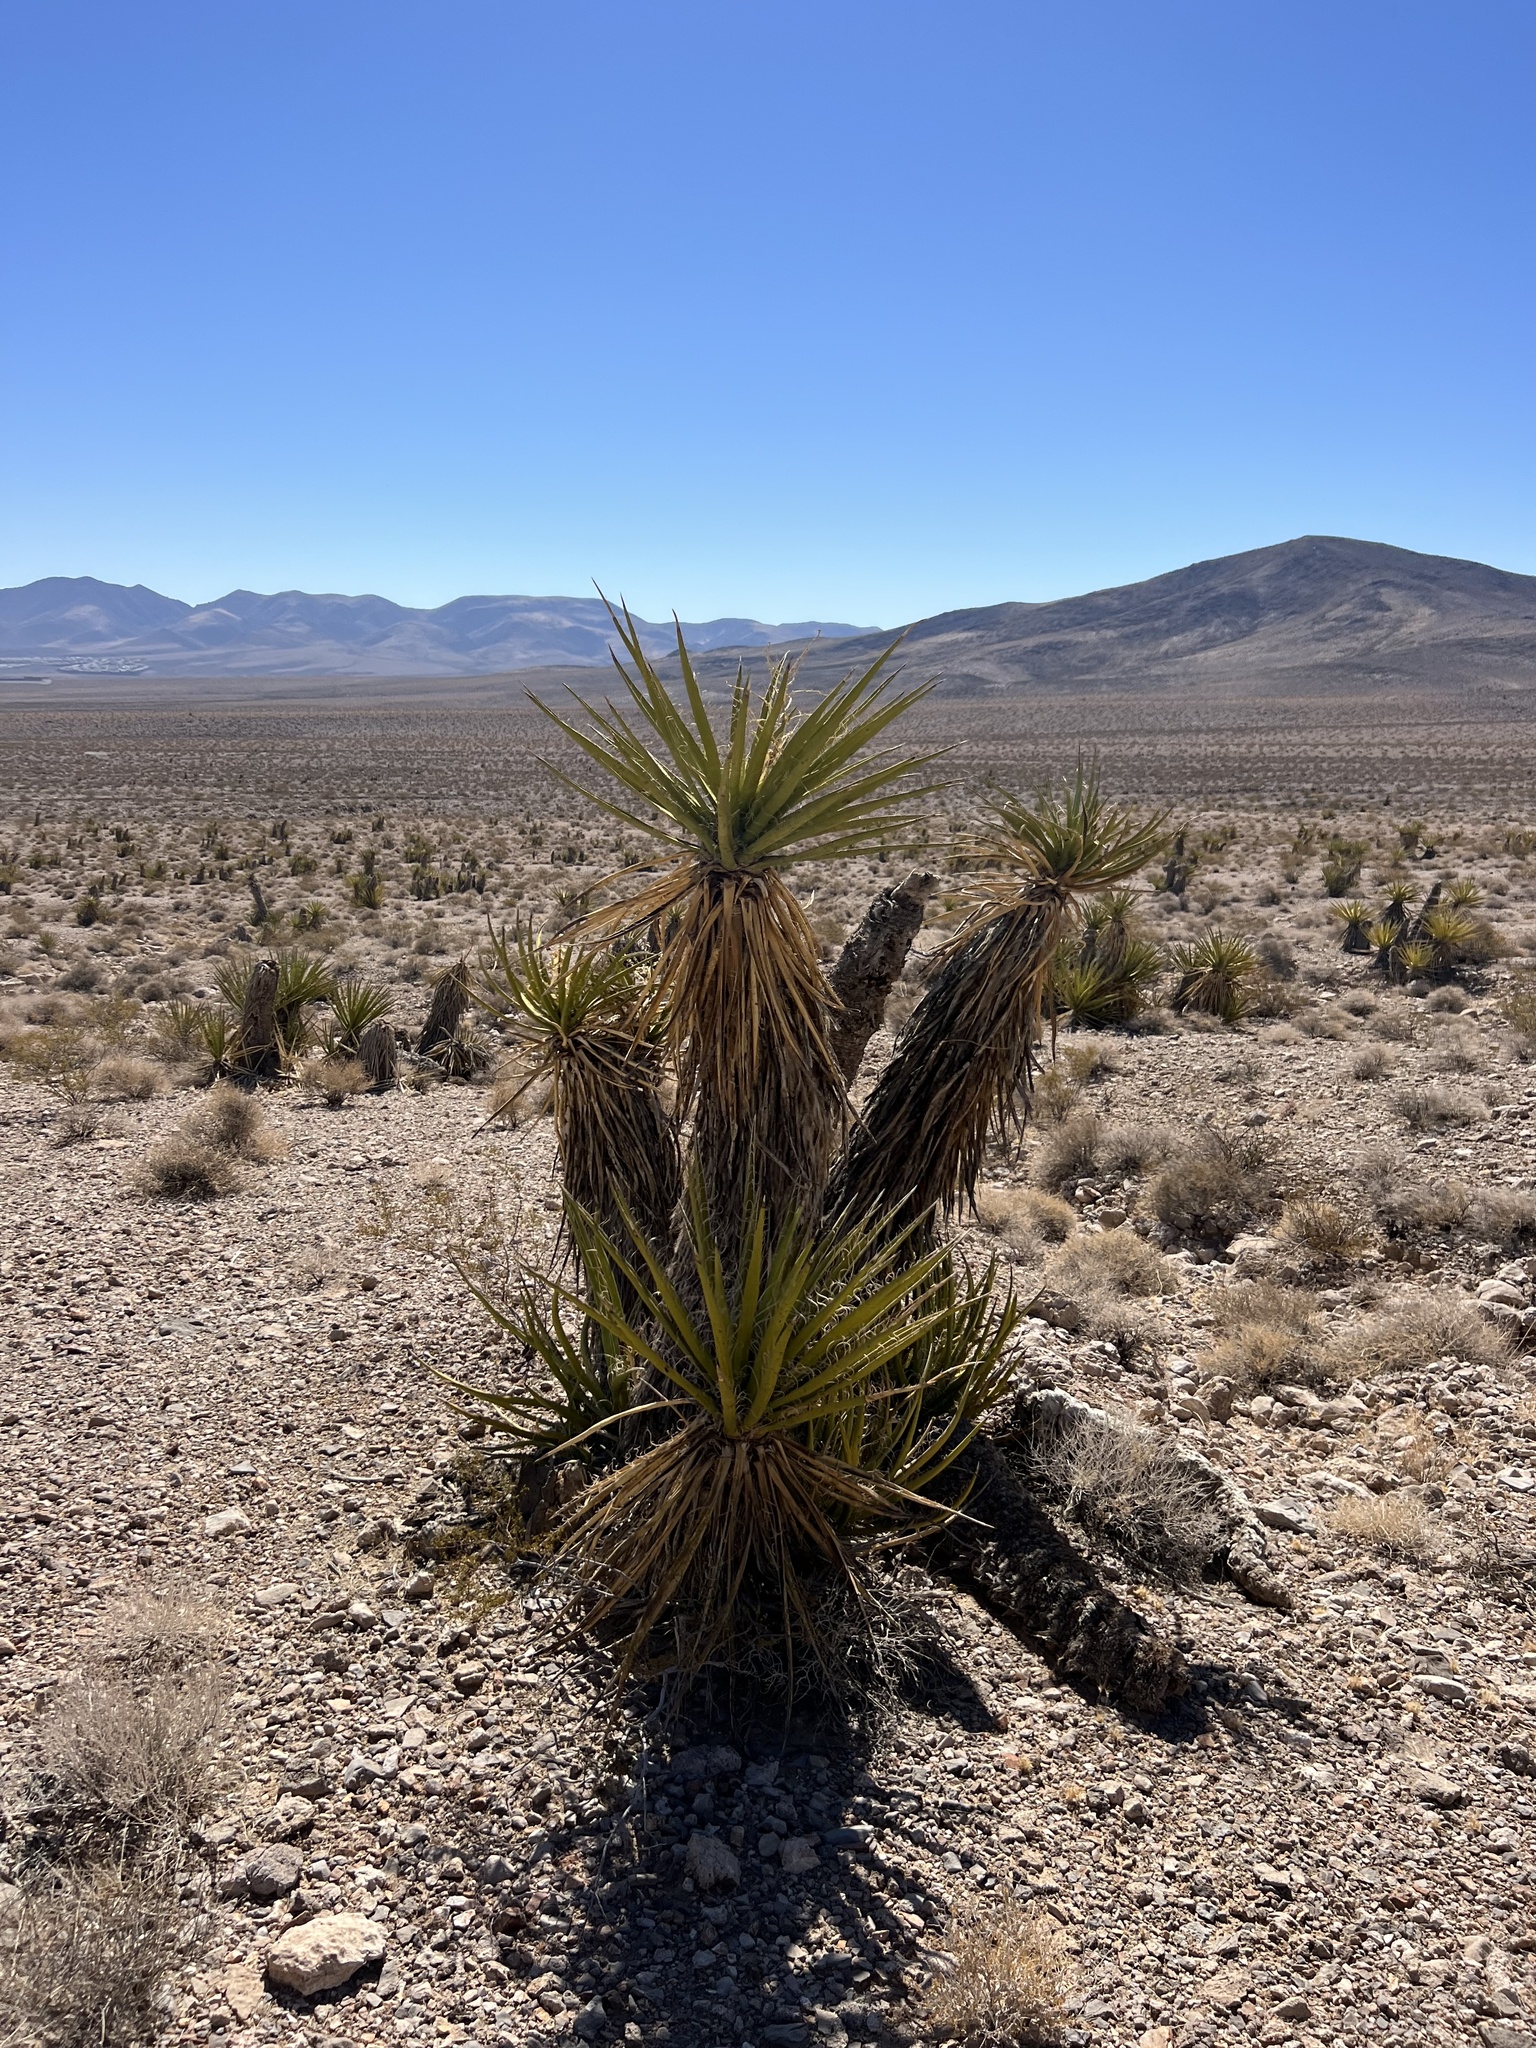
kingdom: Plantae
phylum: Tracheophyta
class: Liliopsida
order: Asparagales
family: Asparagaceae
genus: Yucca
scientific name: Yucca schidigera
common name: Mojave yucca
